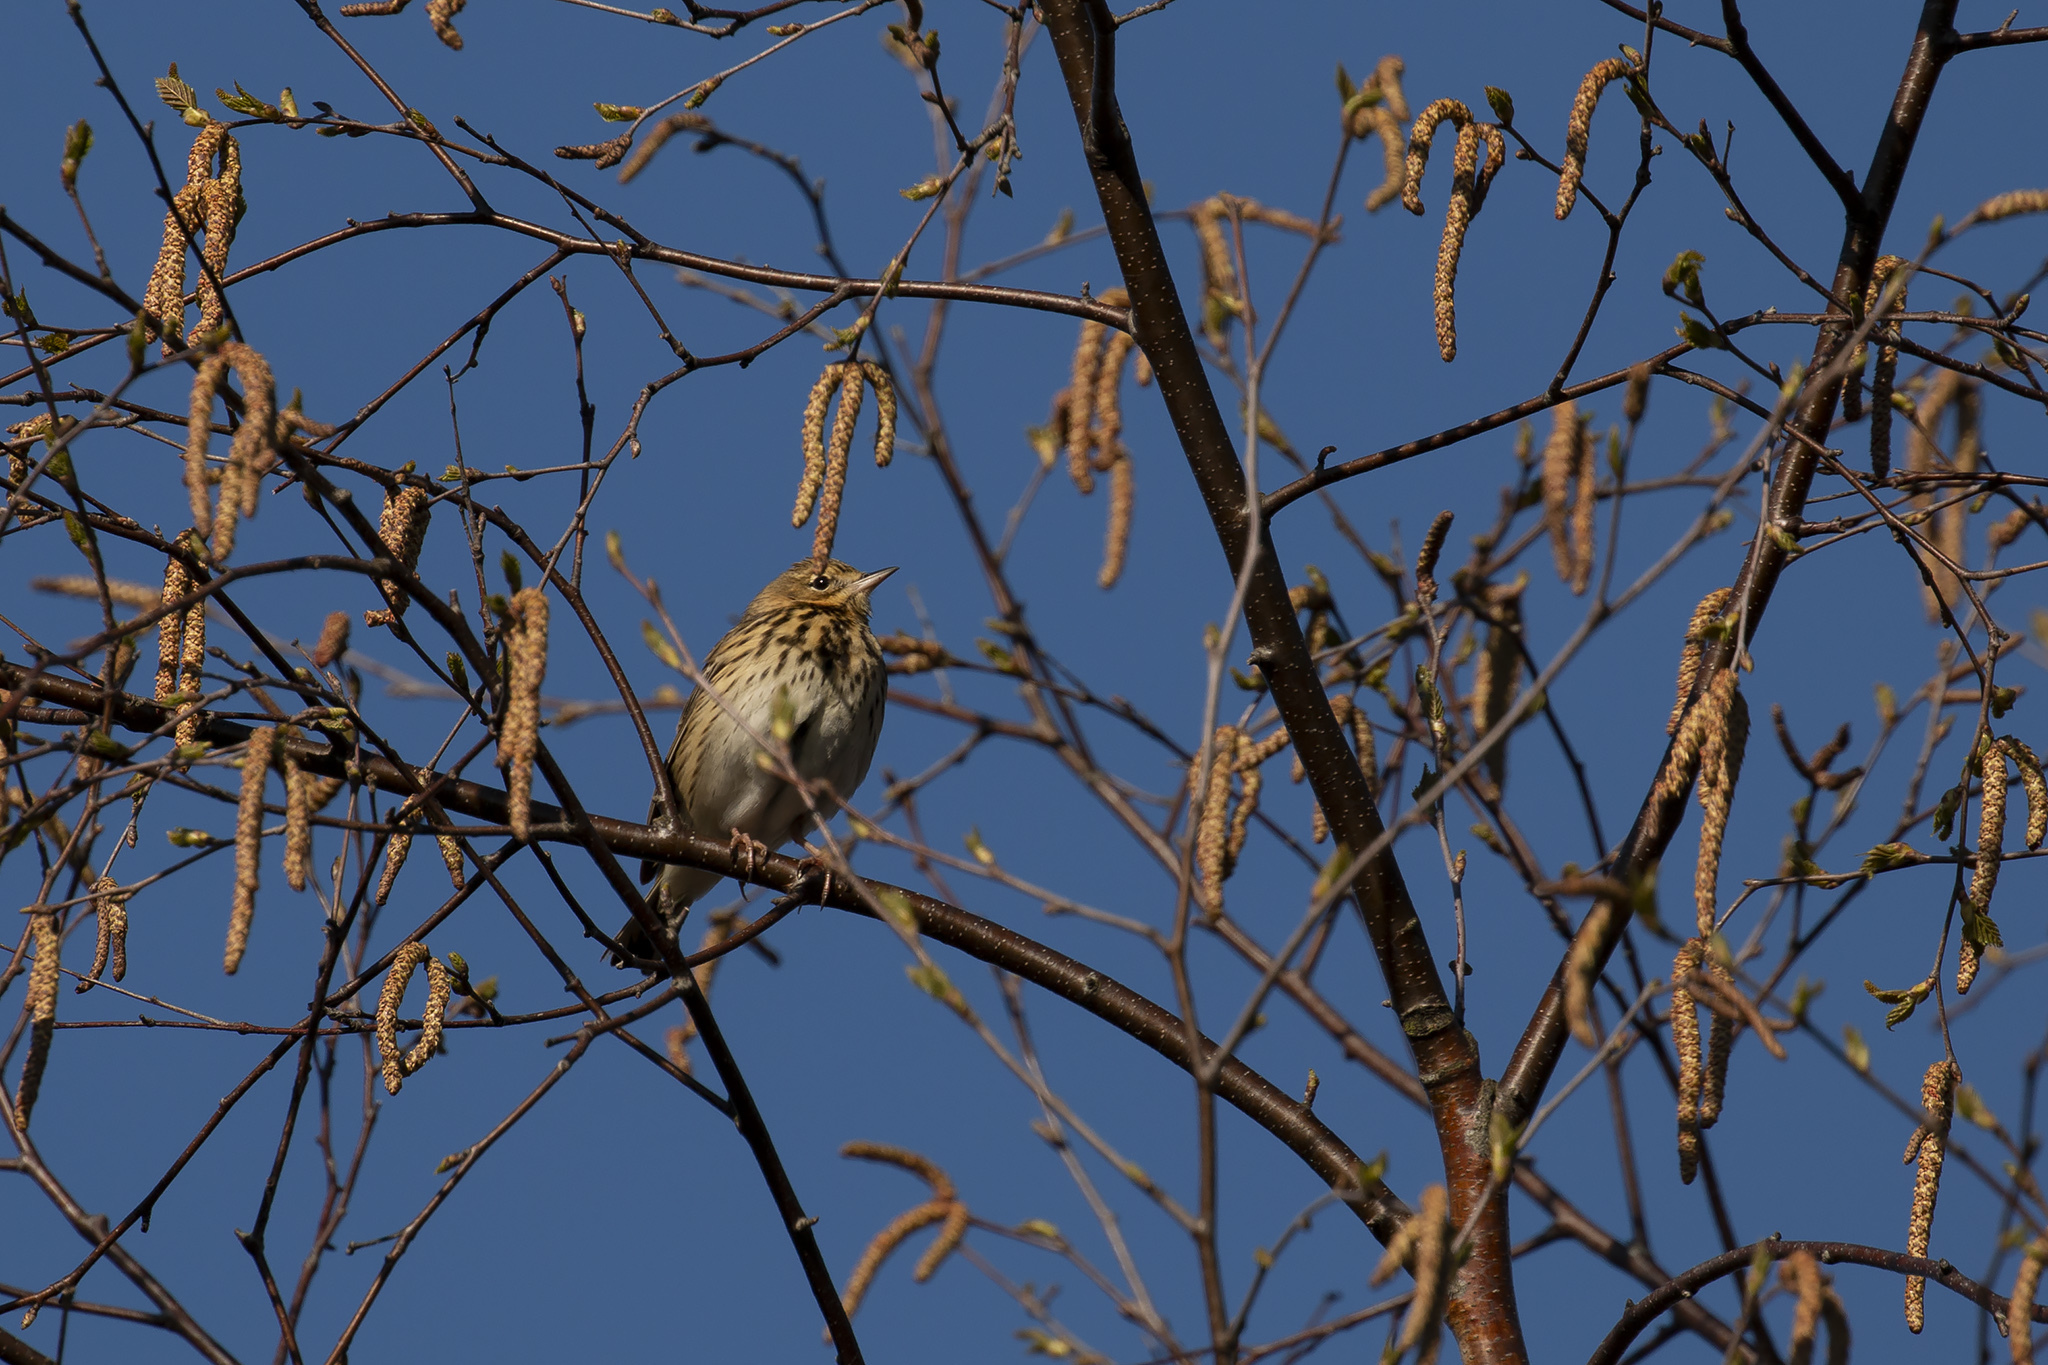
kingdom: Animalia
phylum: Chordata
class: Aves
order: Passeriformes
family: Motacillidae
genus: Anthus
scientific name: Anthus trivialis
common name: Tree pipit
